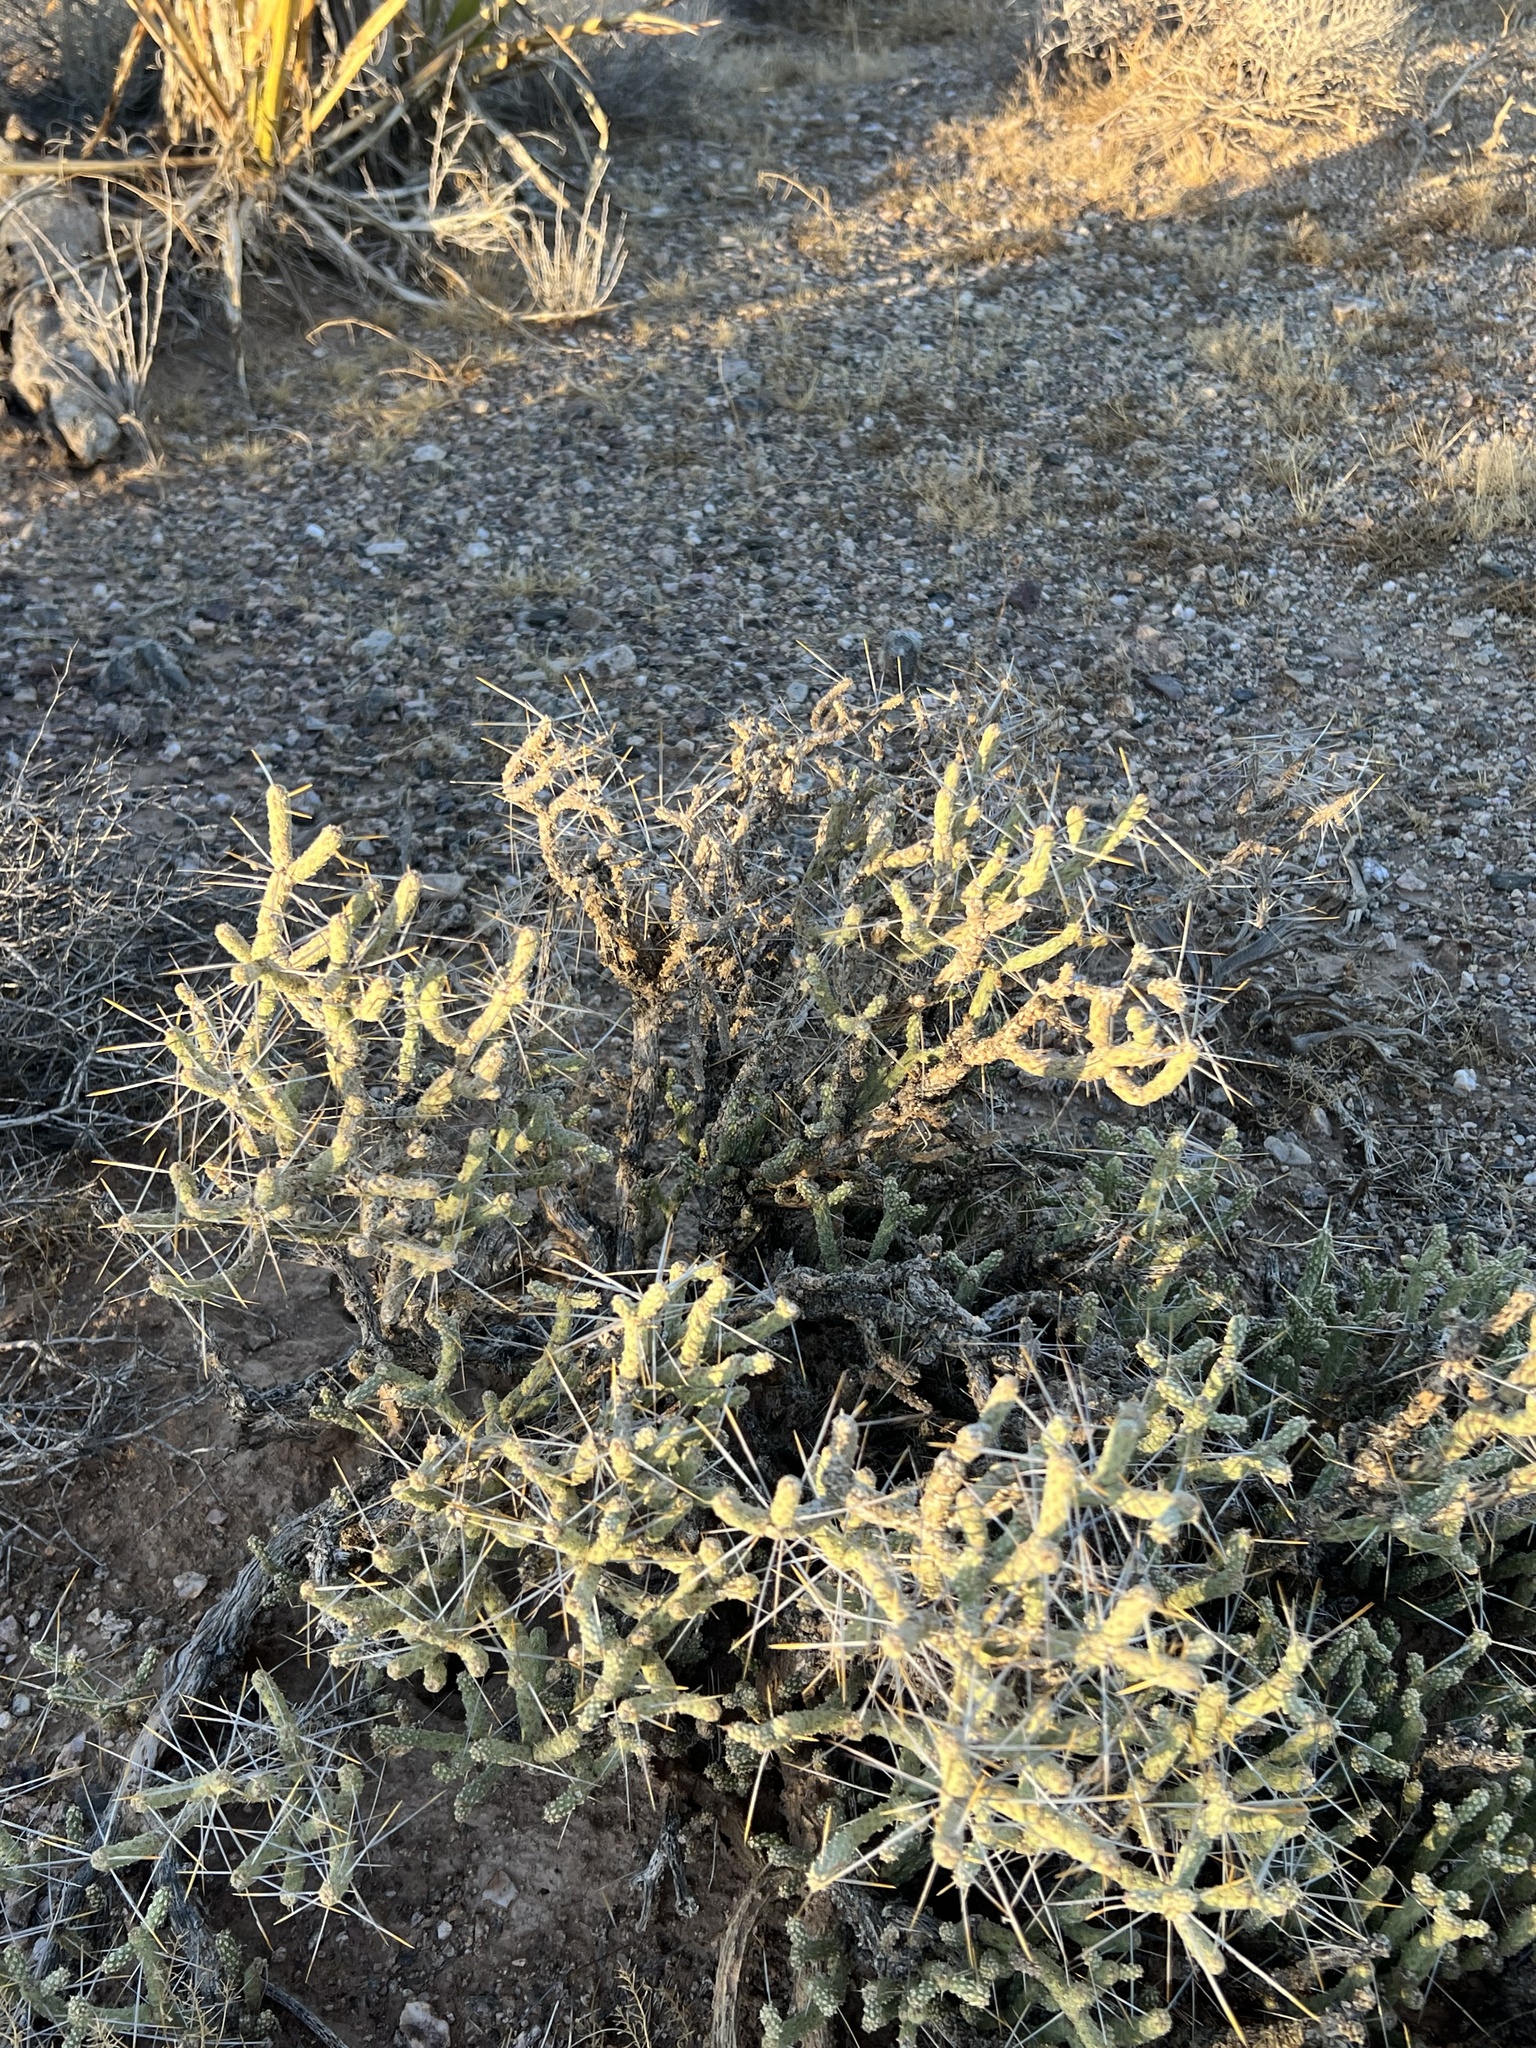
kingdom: Plantae
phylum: Tracheophyta
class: Magnoliopsida
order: Caryophyllales
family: Cactaceae
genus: Cylindropuntia
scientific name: Cylindropuntia ramosissima
